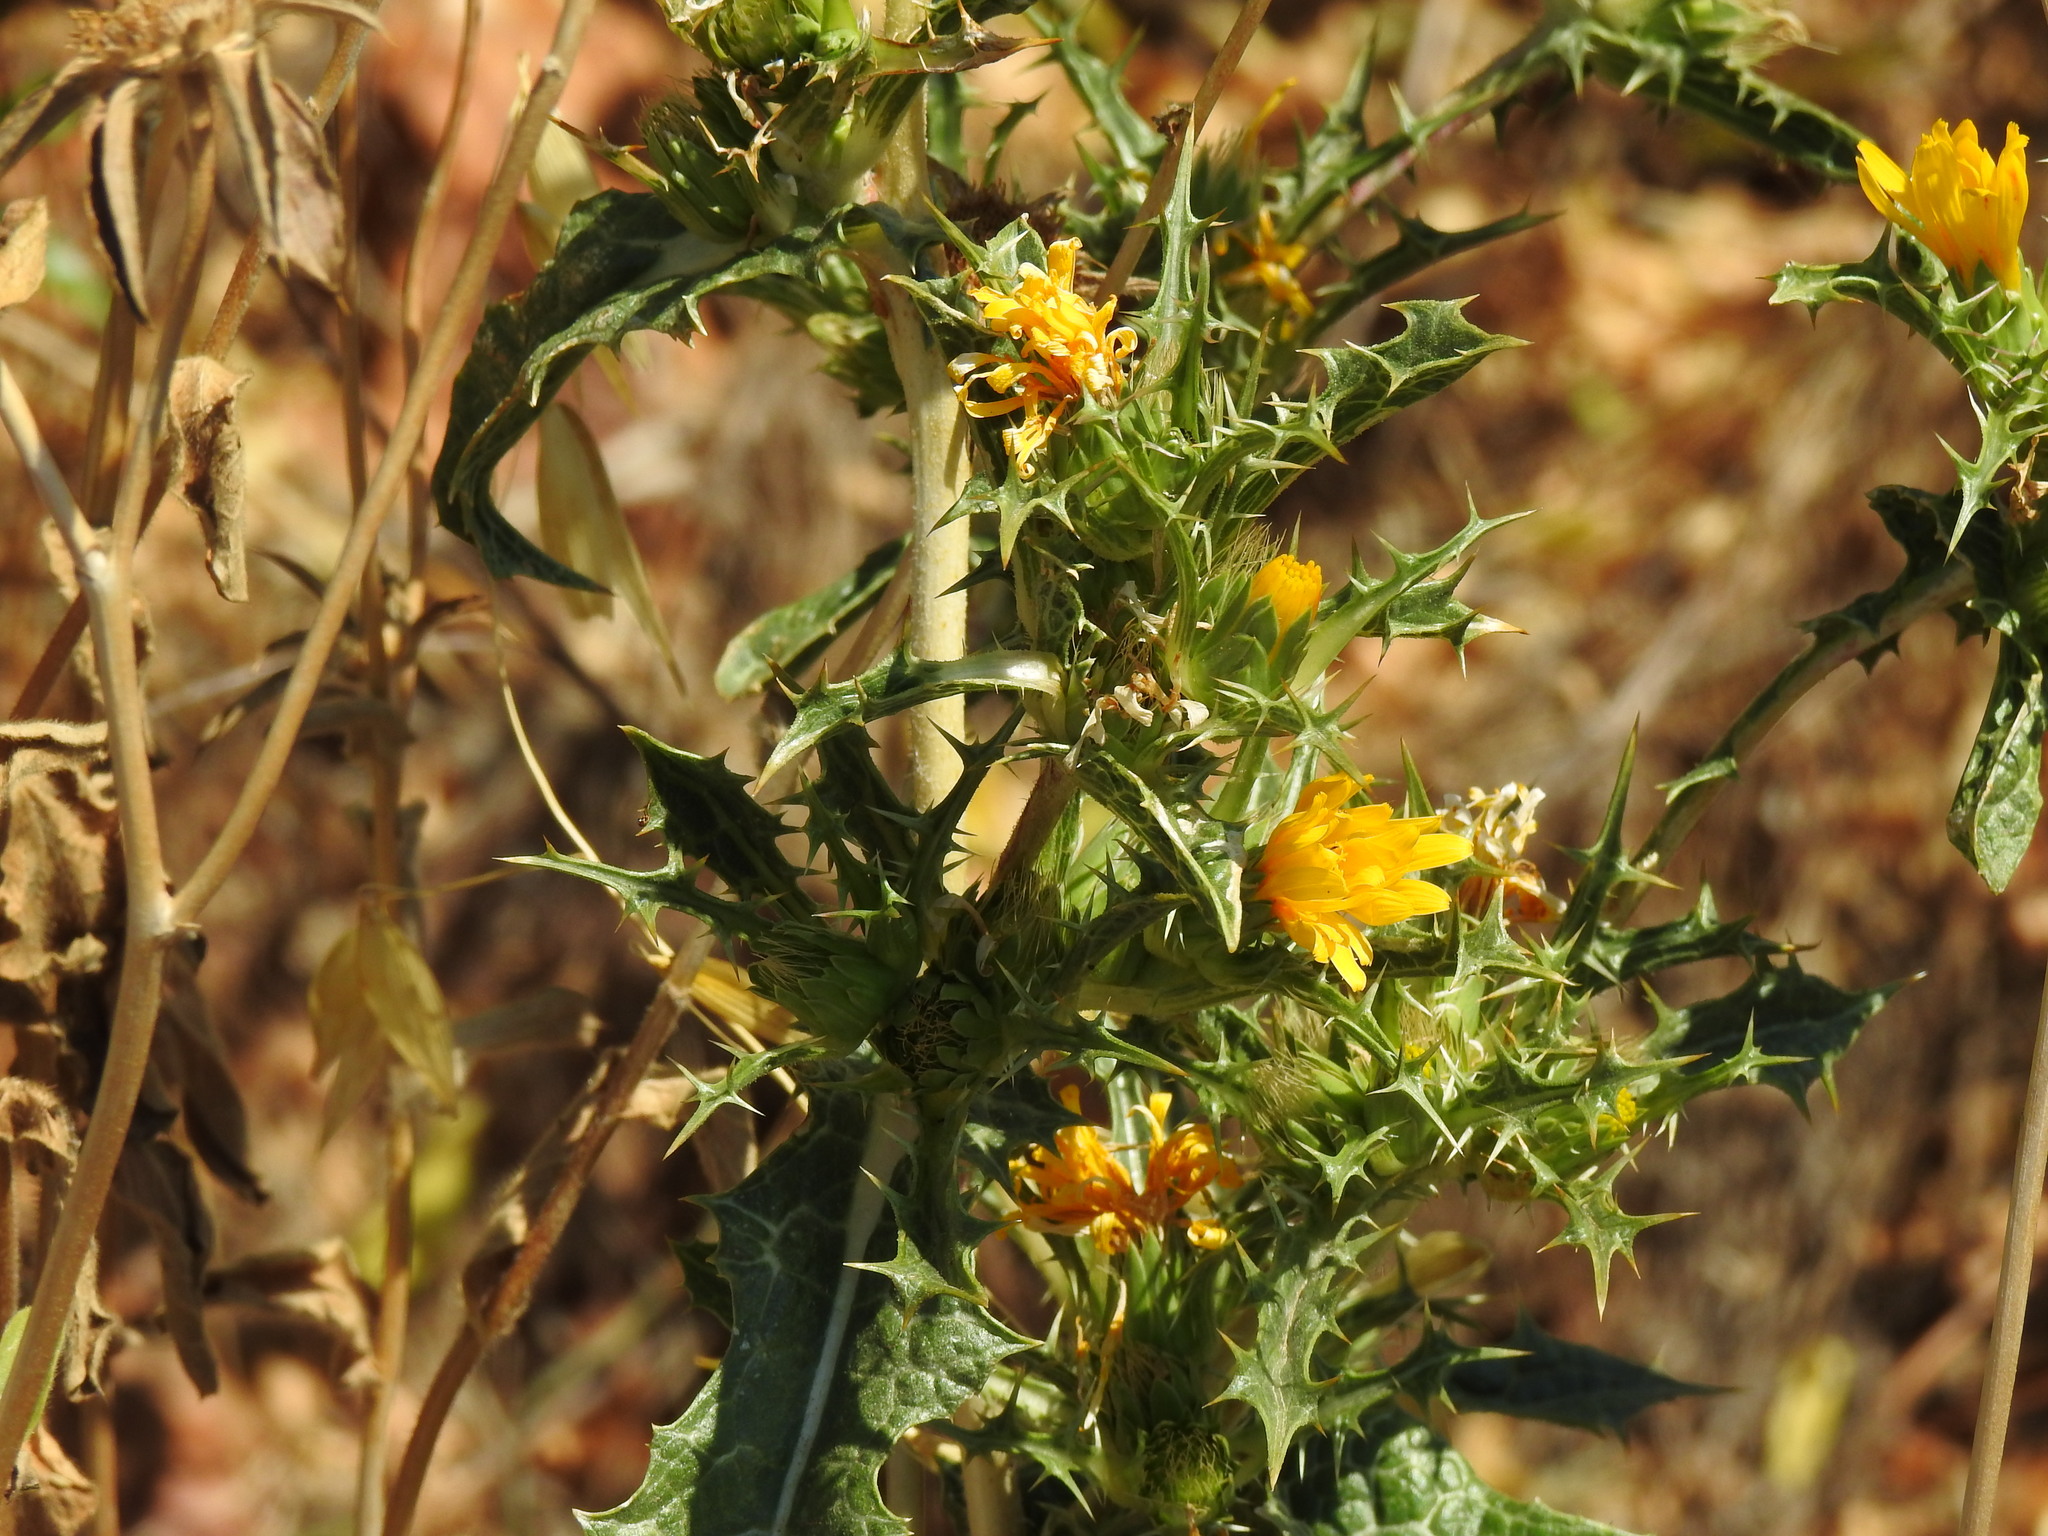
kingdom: Plantae
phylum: Tracheophyta
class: Magnoliopsida
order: Asterales
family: Asteraceae
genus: Scolymus
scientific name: Scolymus hispanicus
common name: Golden thistle
